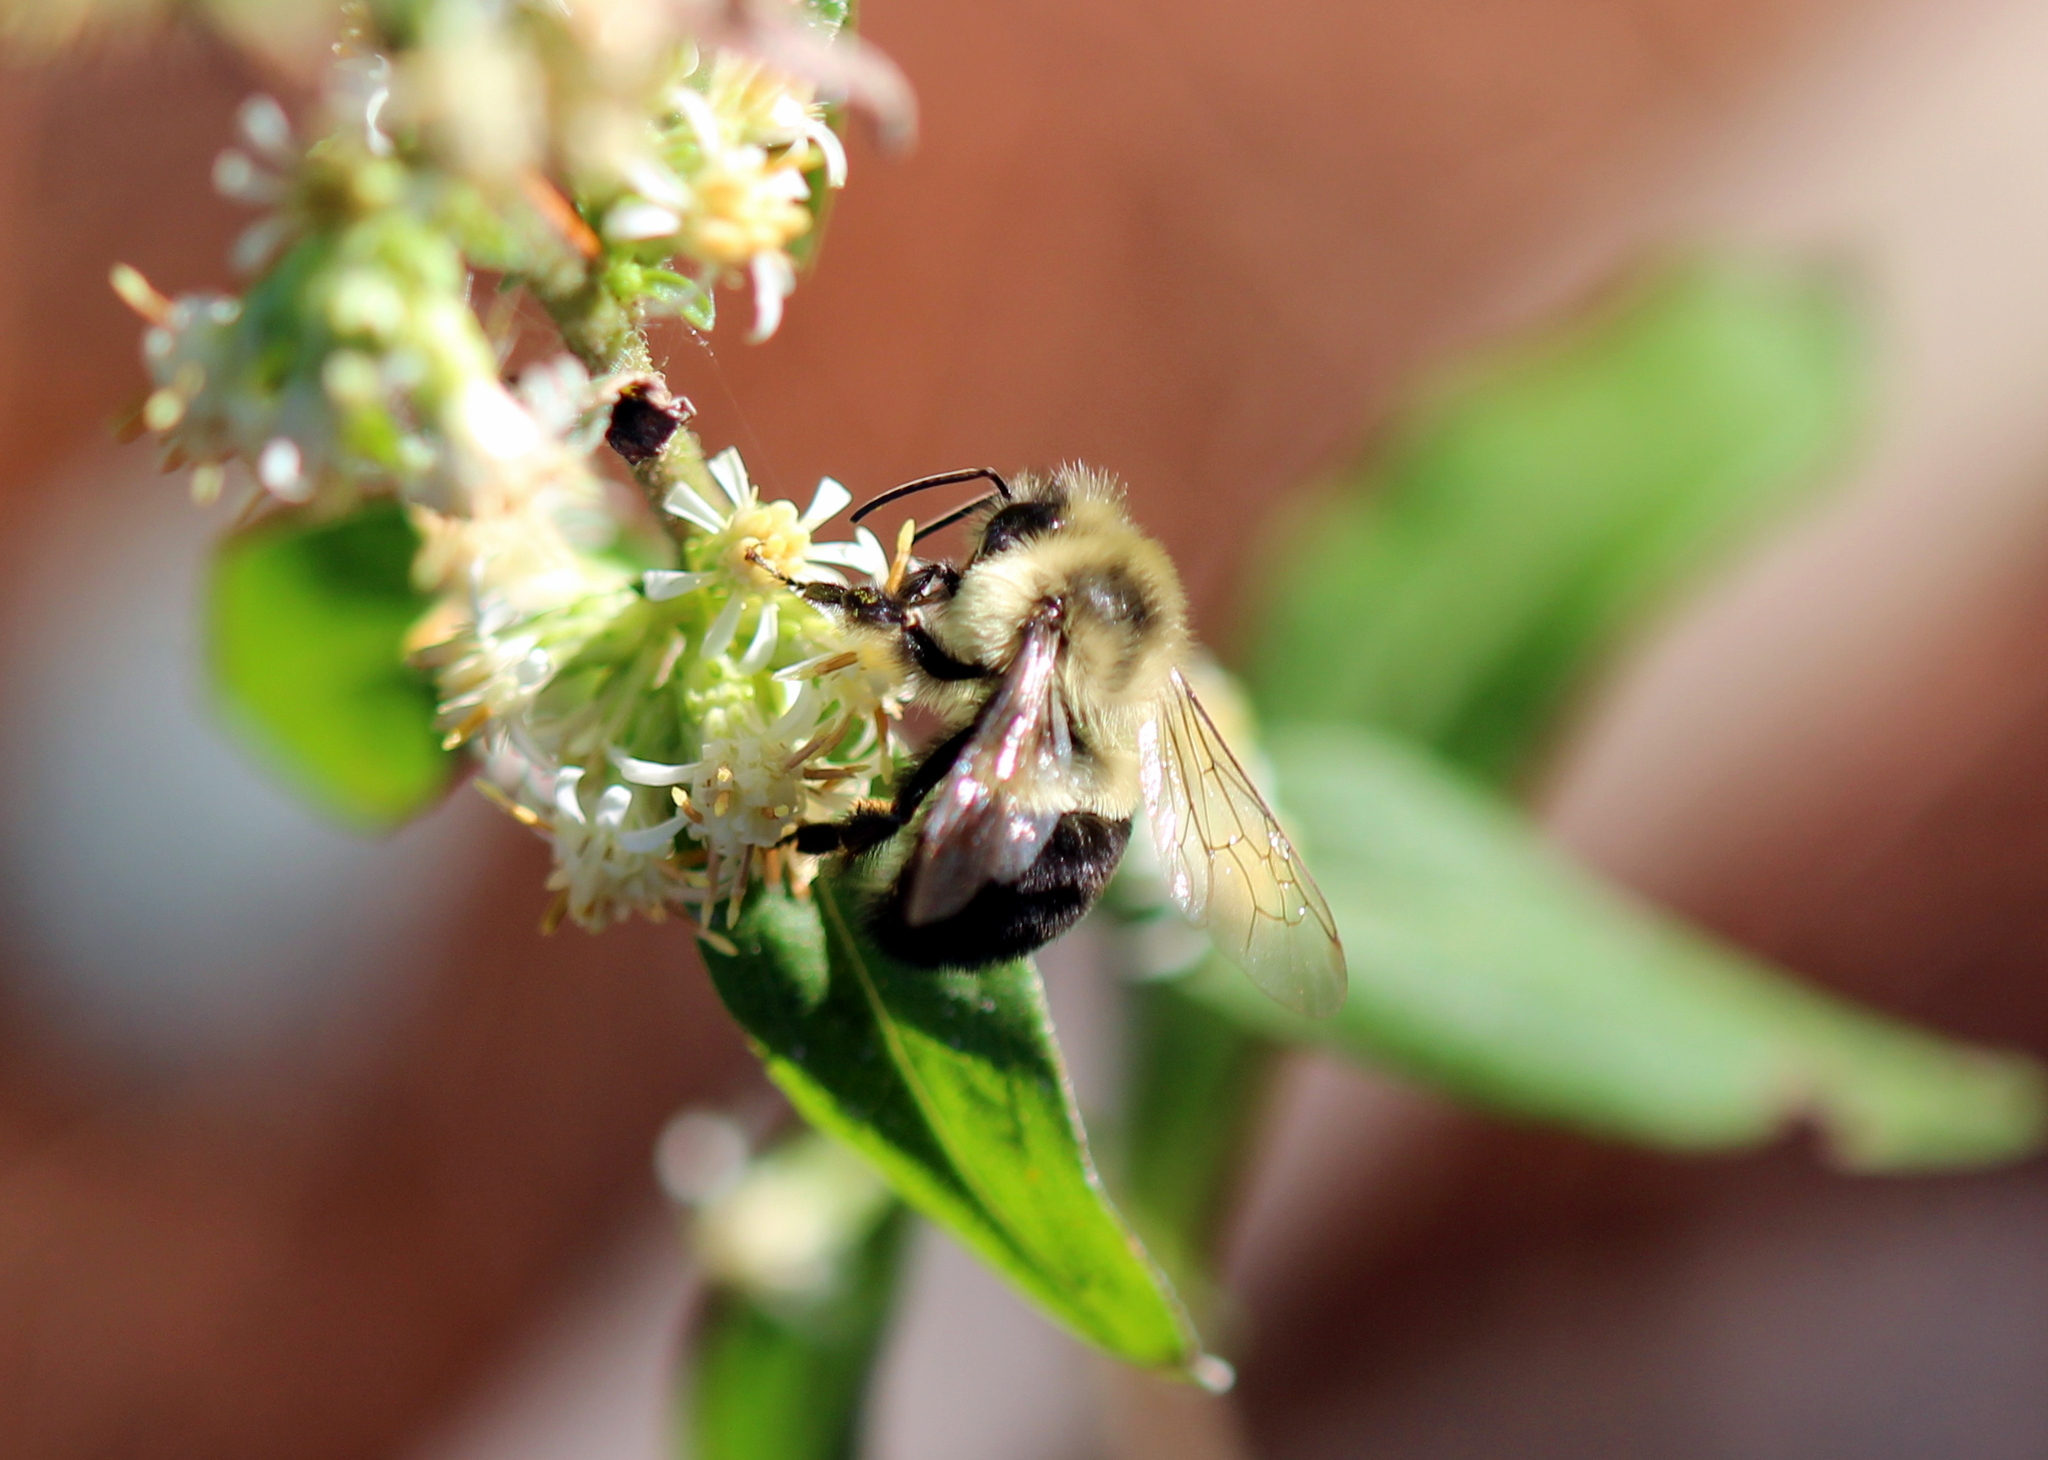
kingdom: Animalia
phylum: Arthropoda
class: Insecta
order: Hymenoptera
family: Apidae
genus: Bombus
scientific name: Bombus impatiens
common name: Common eastern bumble bee
